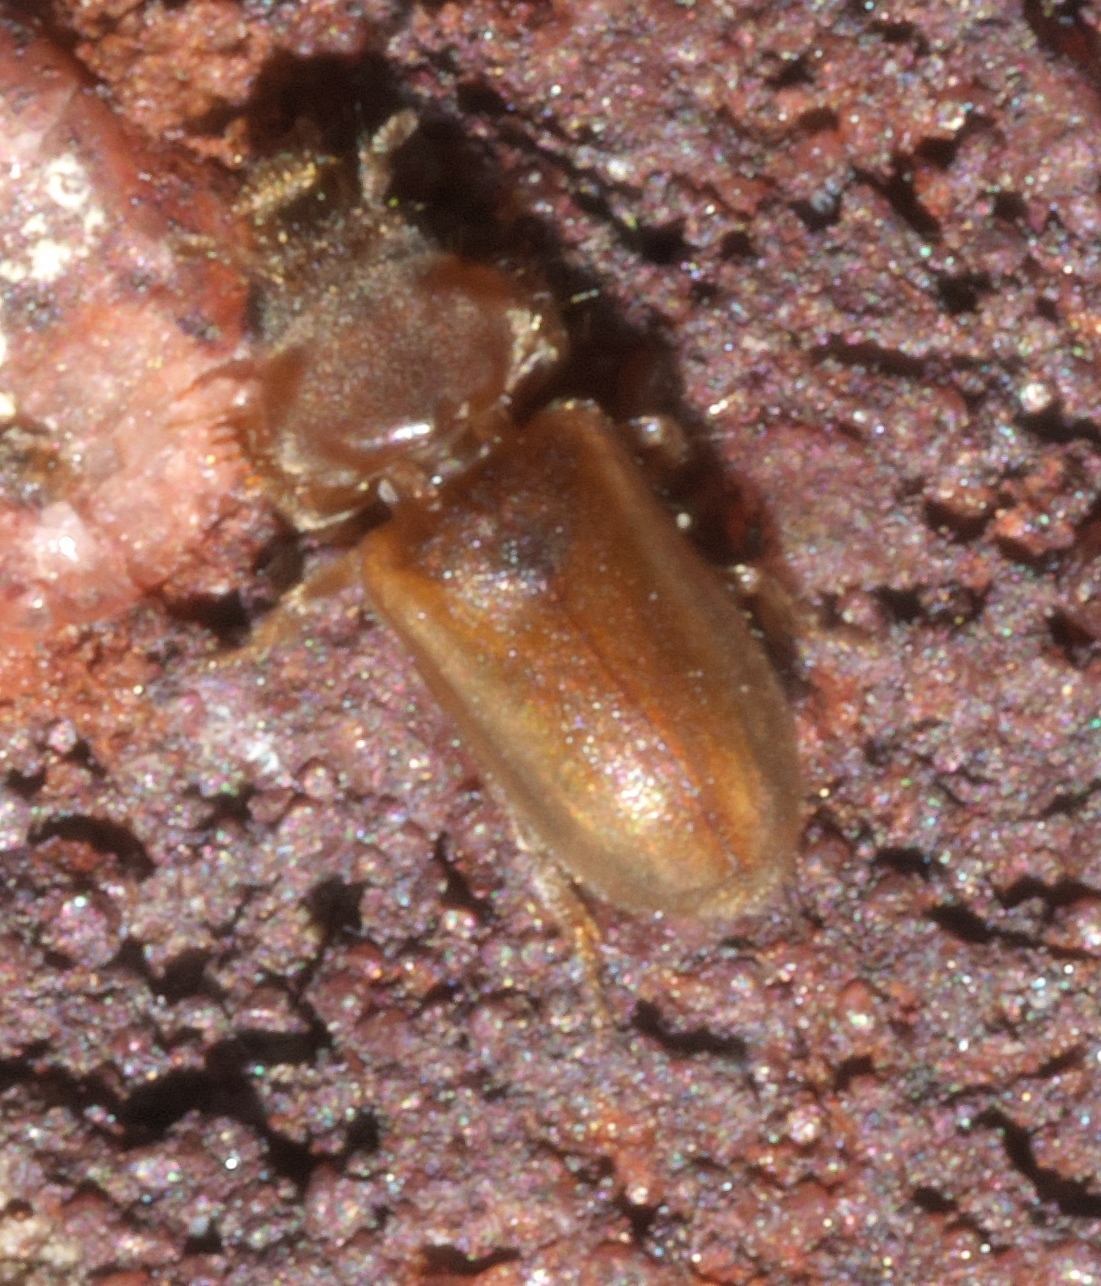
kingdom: Animalia
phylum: Arthropoda
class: Insecta
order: Coleoptera
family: Heteroceridae
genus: Tropicus
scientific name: Tropicus pusillus
